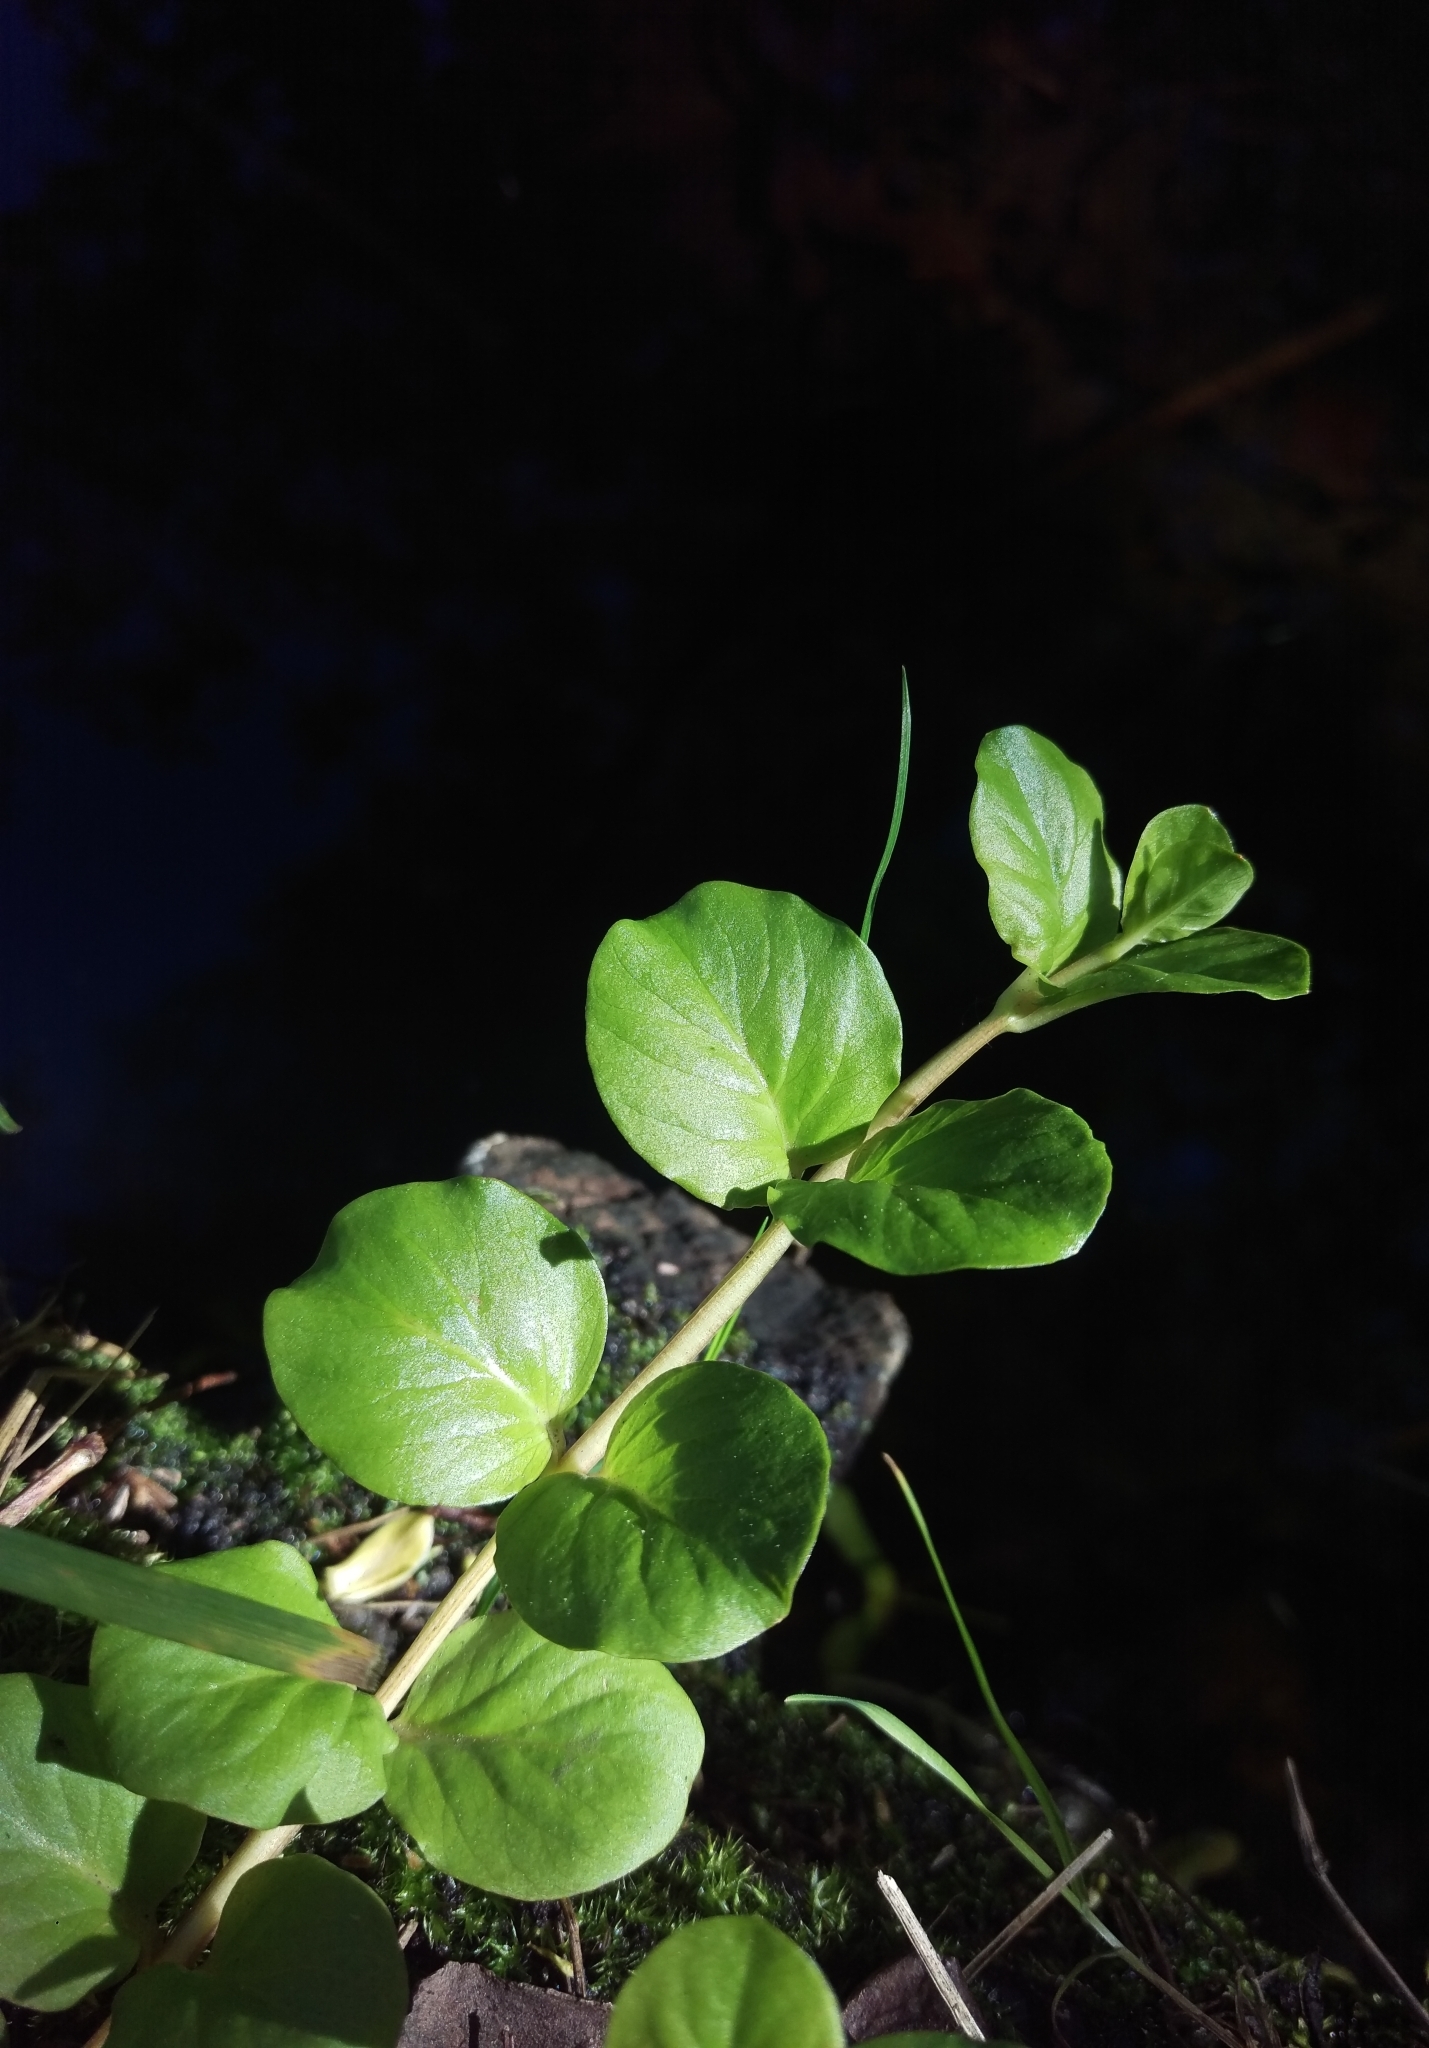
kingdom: Plantae
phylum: Tracheophyta
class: Magnoliopsida
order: Ericales
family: Primulaceae
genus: Lysimachia
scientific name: Lysimachia nummularia
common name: Moneywort
